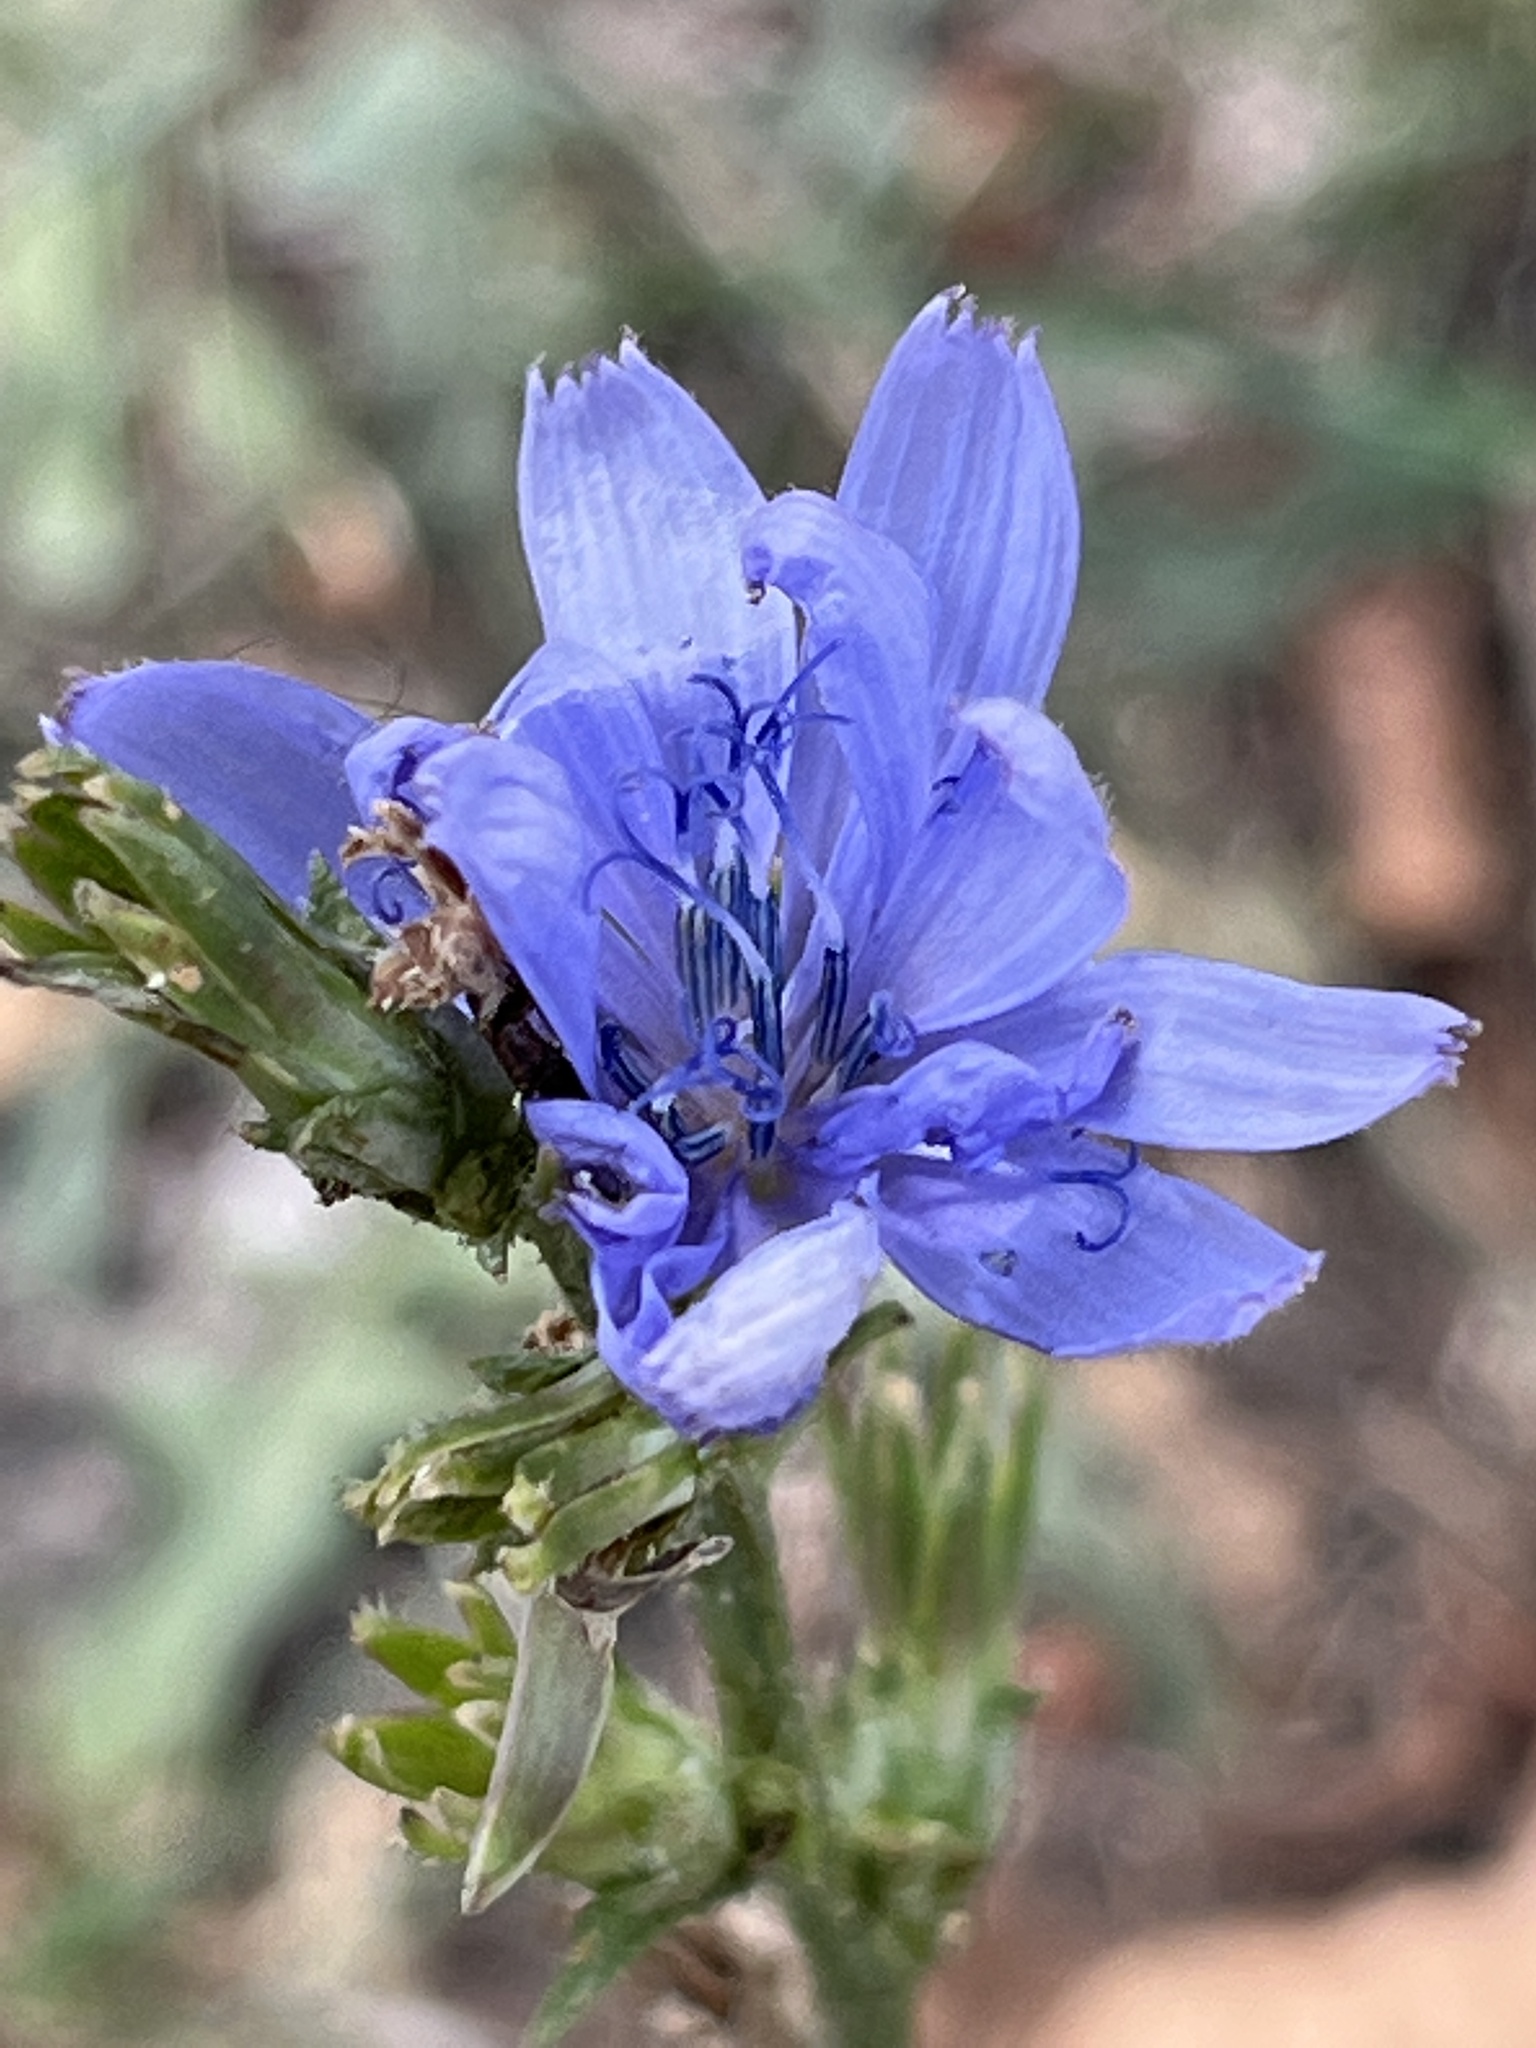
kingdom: Plantae
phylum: Tracheophyta
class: Magnoliopsida
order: Asterales
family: Asteraceae
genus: Cichorium
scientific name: Cichorium intybus
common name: Chicory
